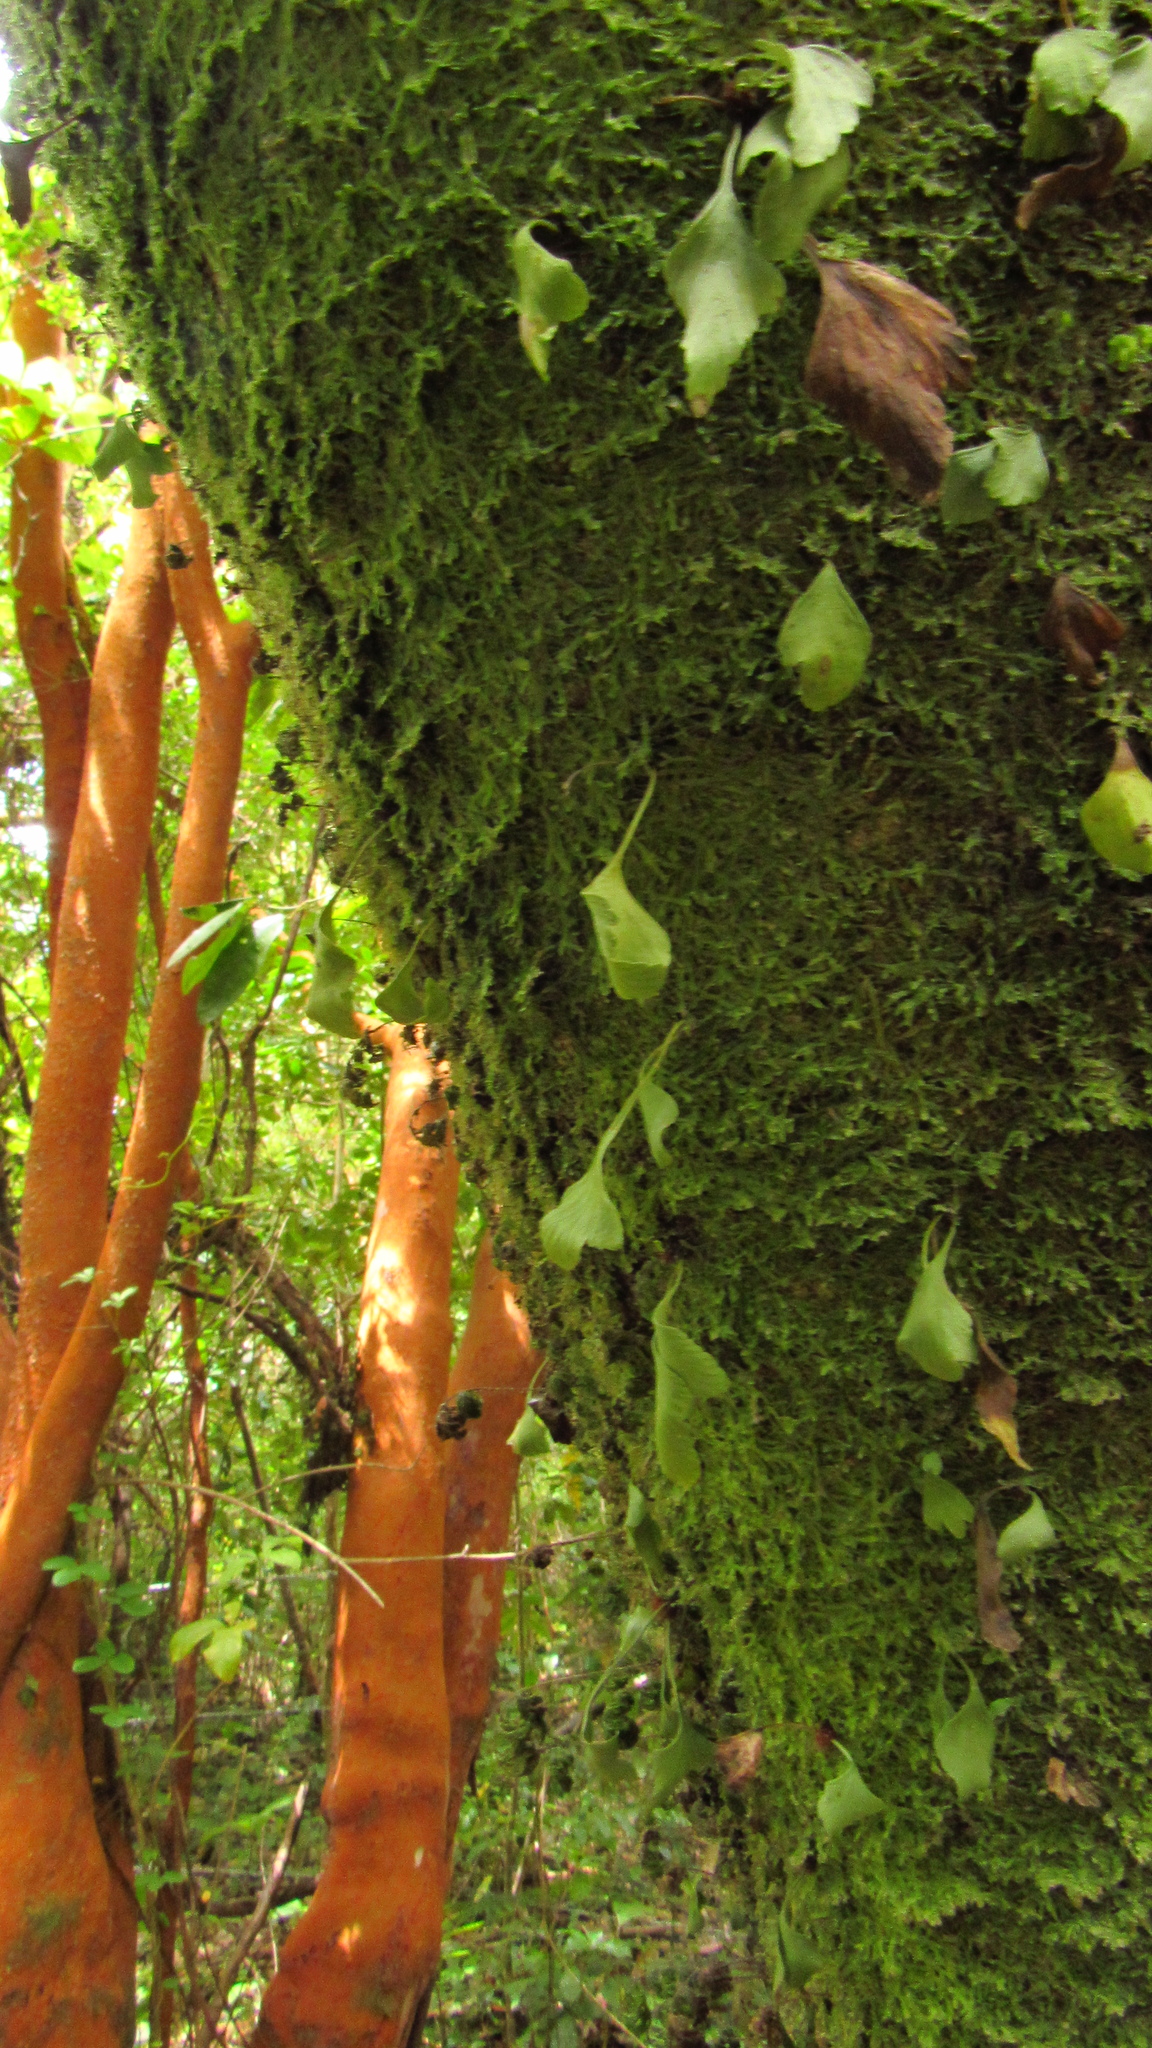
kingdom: Plantae
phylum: Tracheophyta
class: Polypodiopsida
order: Polypodiales
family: Aspleniaceae
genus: Asplenium
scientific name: Asplenium trilobum
